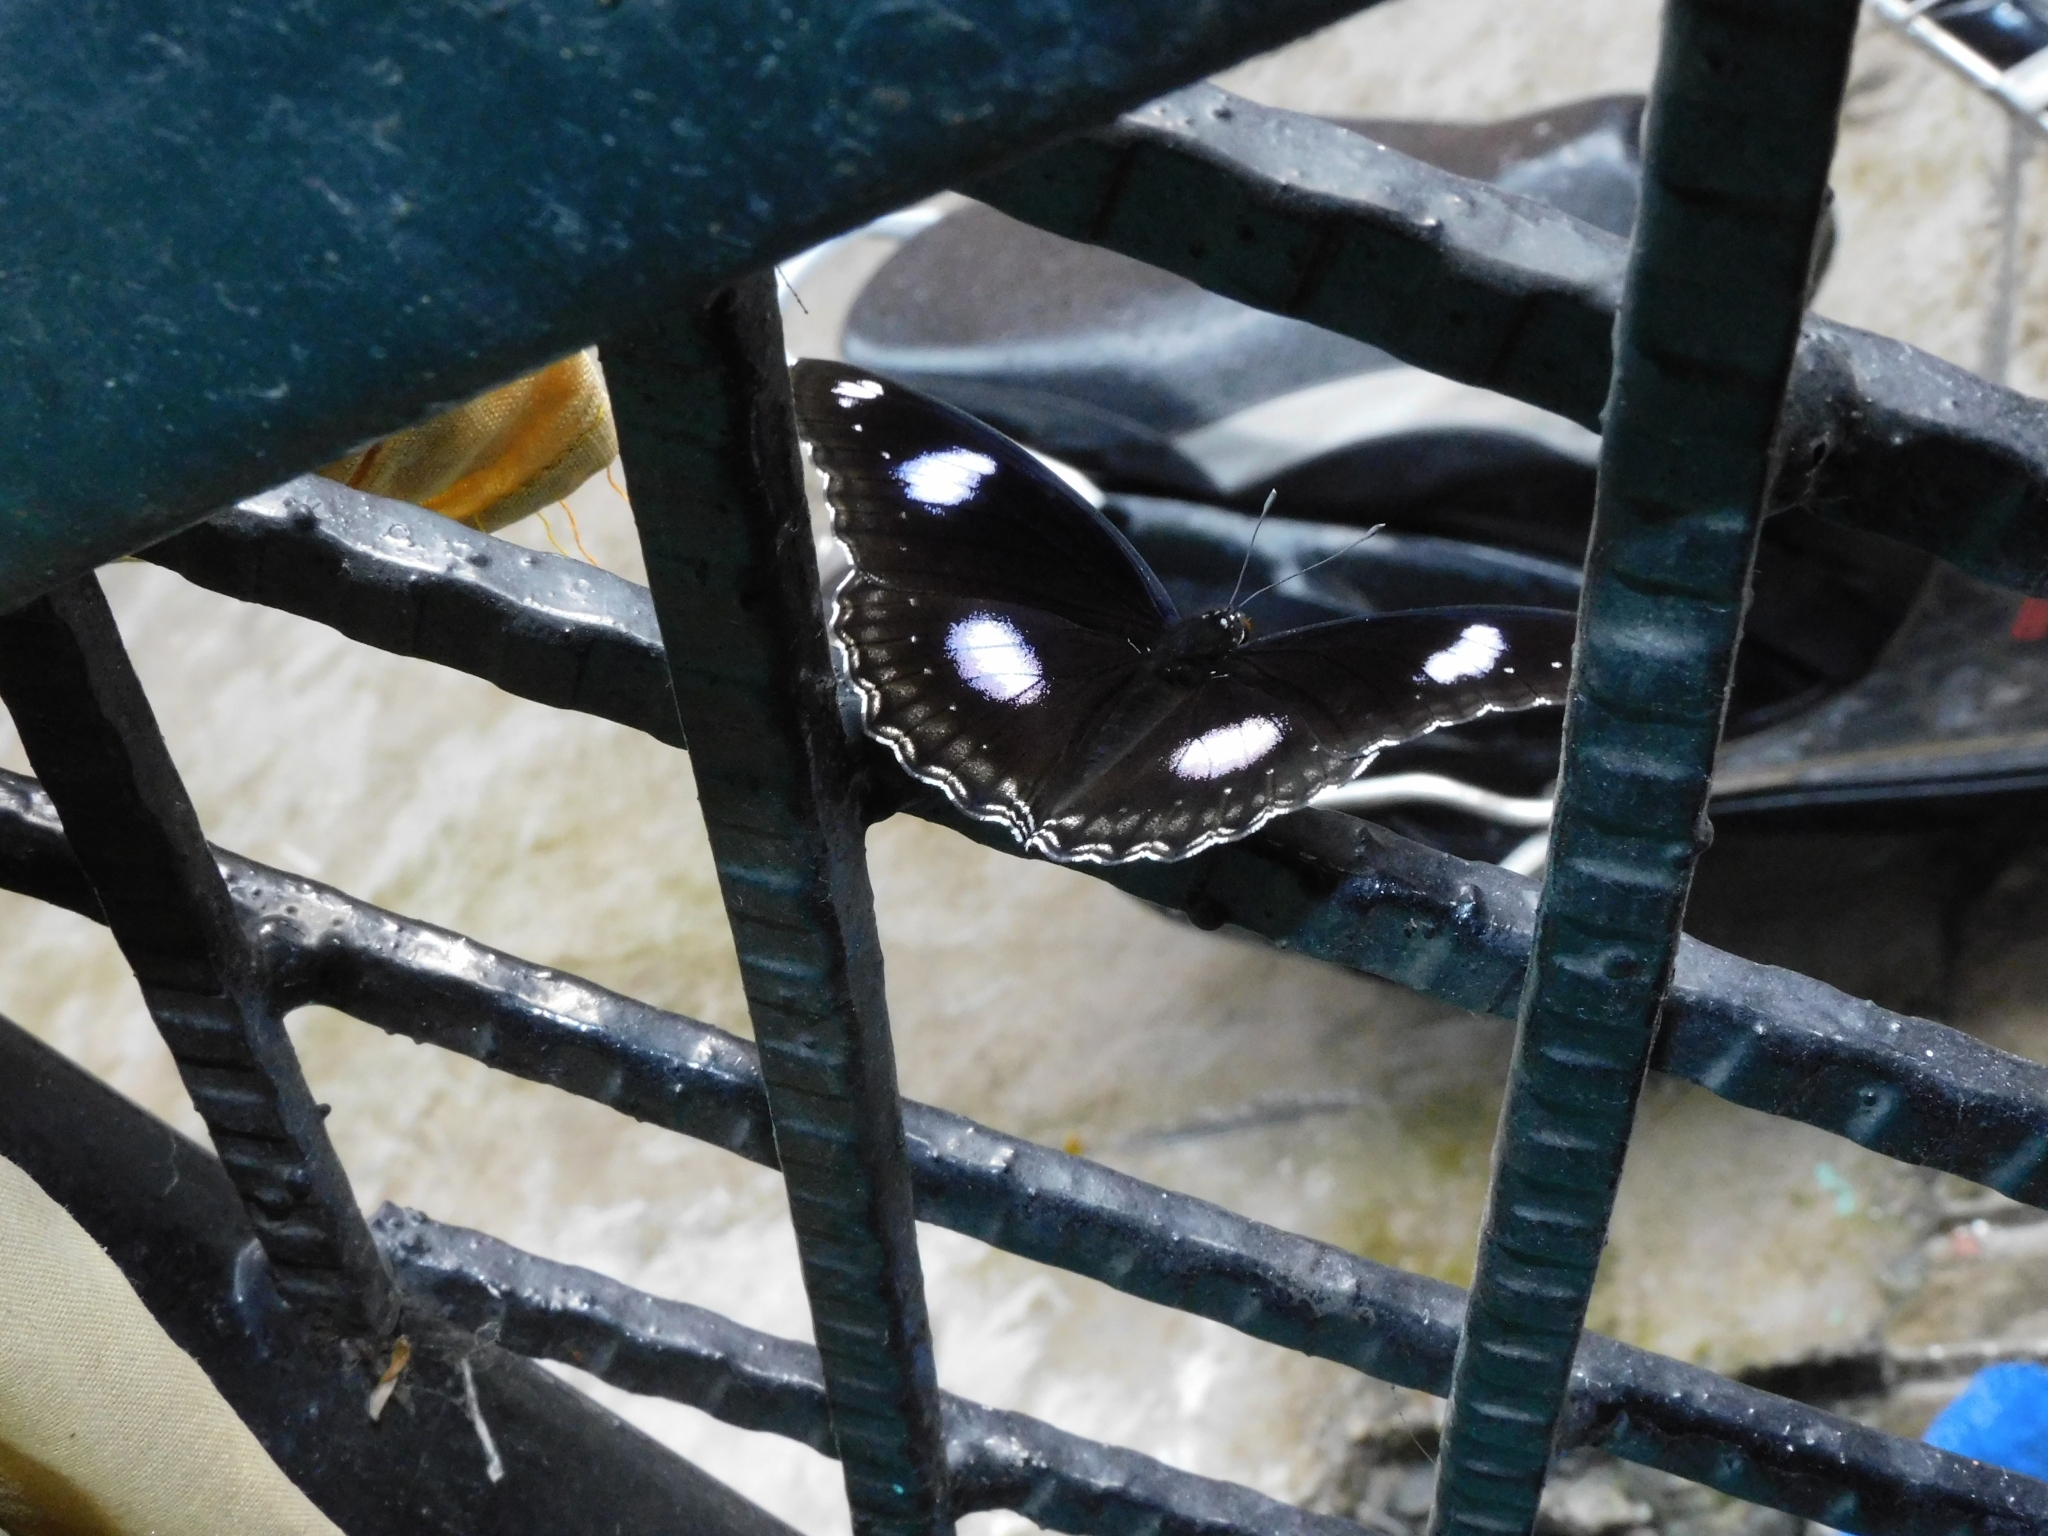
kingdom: Animalia
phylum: Arthropoda
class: Insecta
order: Lepidoptera
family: Nymphalidae
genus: Hypolimnas
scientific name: Hypolimnas bolina
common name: Great eggfly
